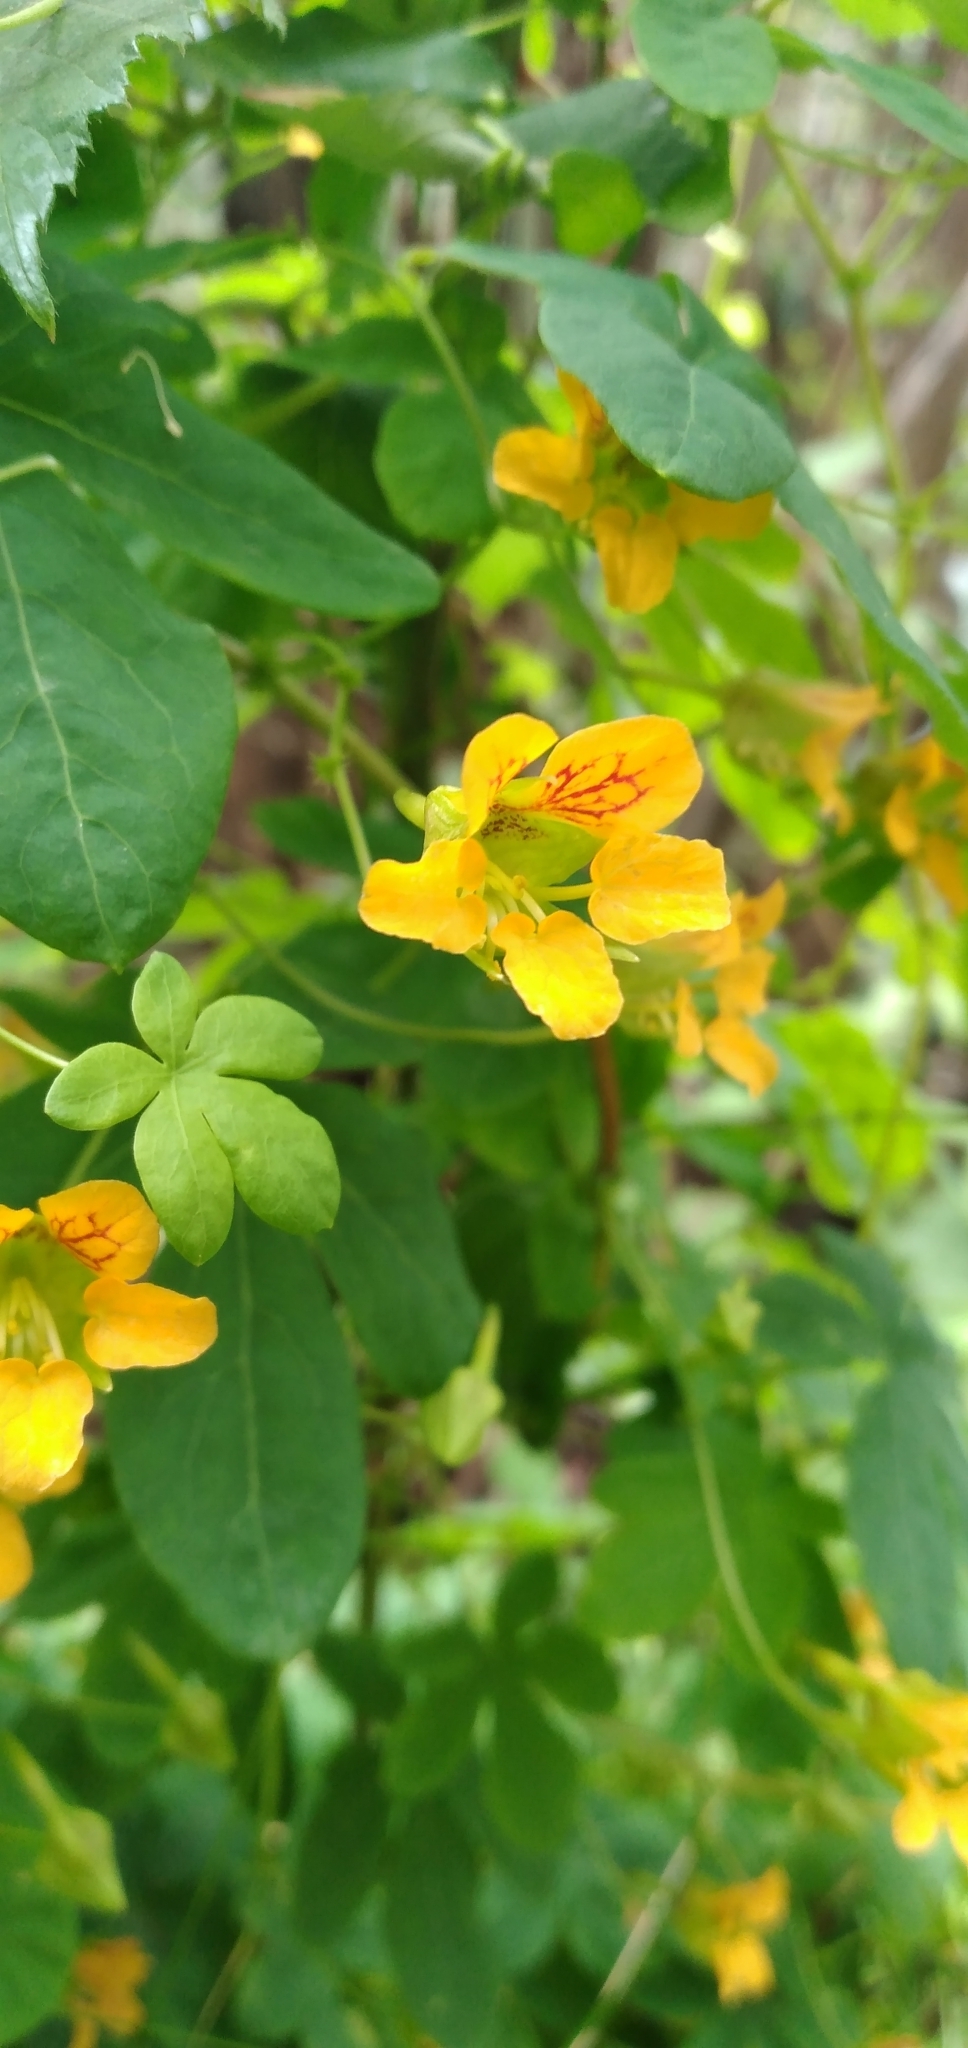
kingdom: Plantae
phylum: Tracheophyta
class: Magnoliopsida
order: Brassicales
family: Tropaeolaceae
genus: Tropaeolum
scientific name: Tropaeolum ciliatum
